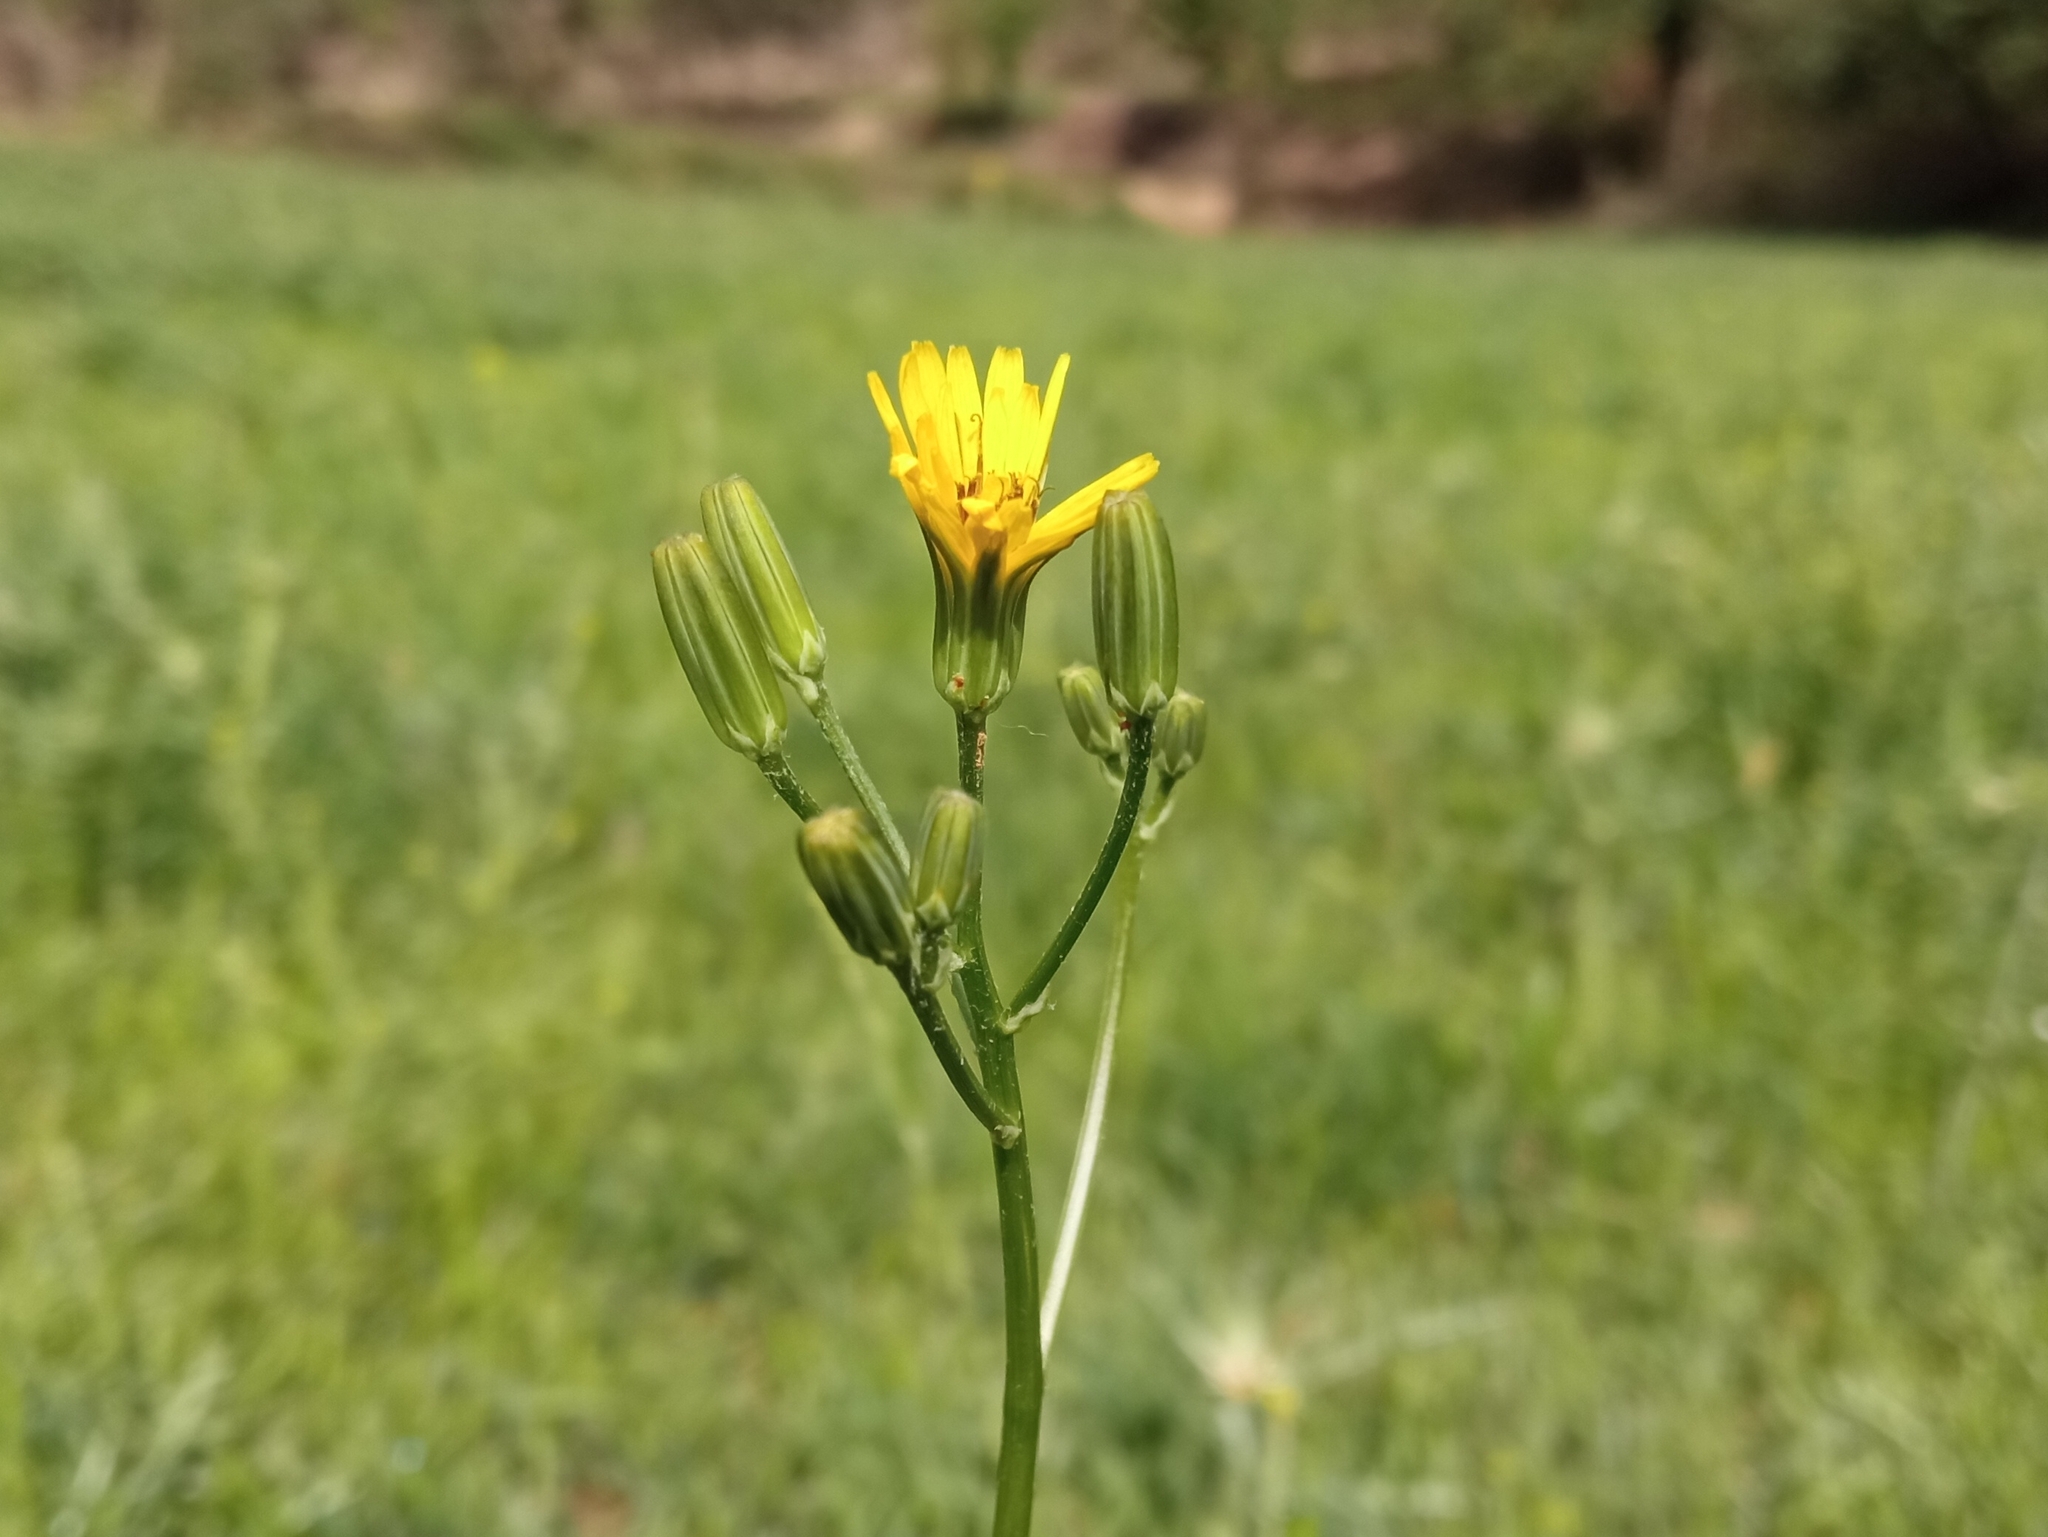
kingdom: Plantae
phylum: Tracheophyta
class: Magnoliopsida
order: Asterales
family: Asteraceae
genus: Crepis
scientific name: Crepis pulchra
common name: Hawk's-beard
